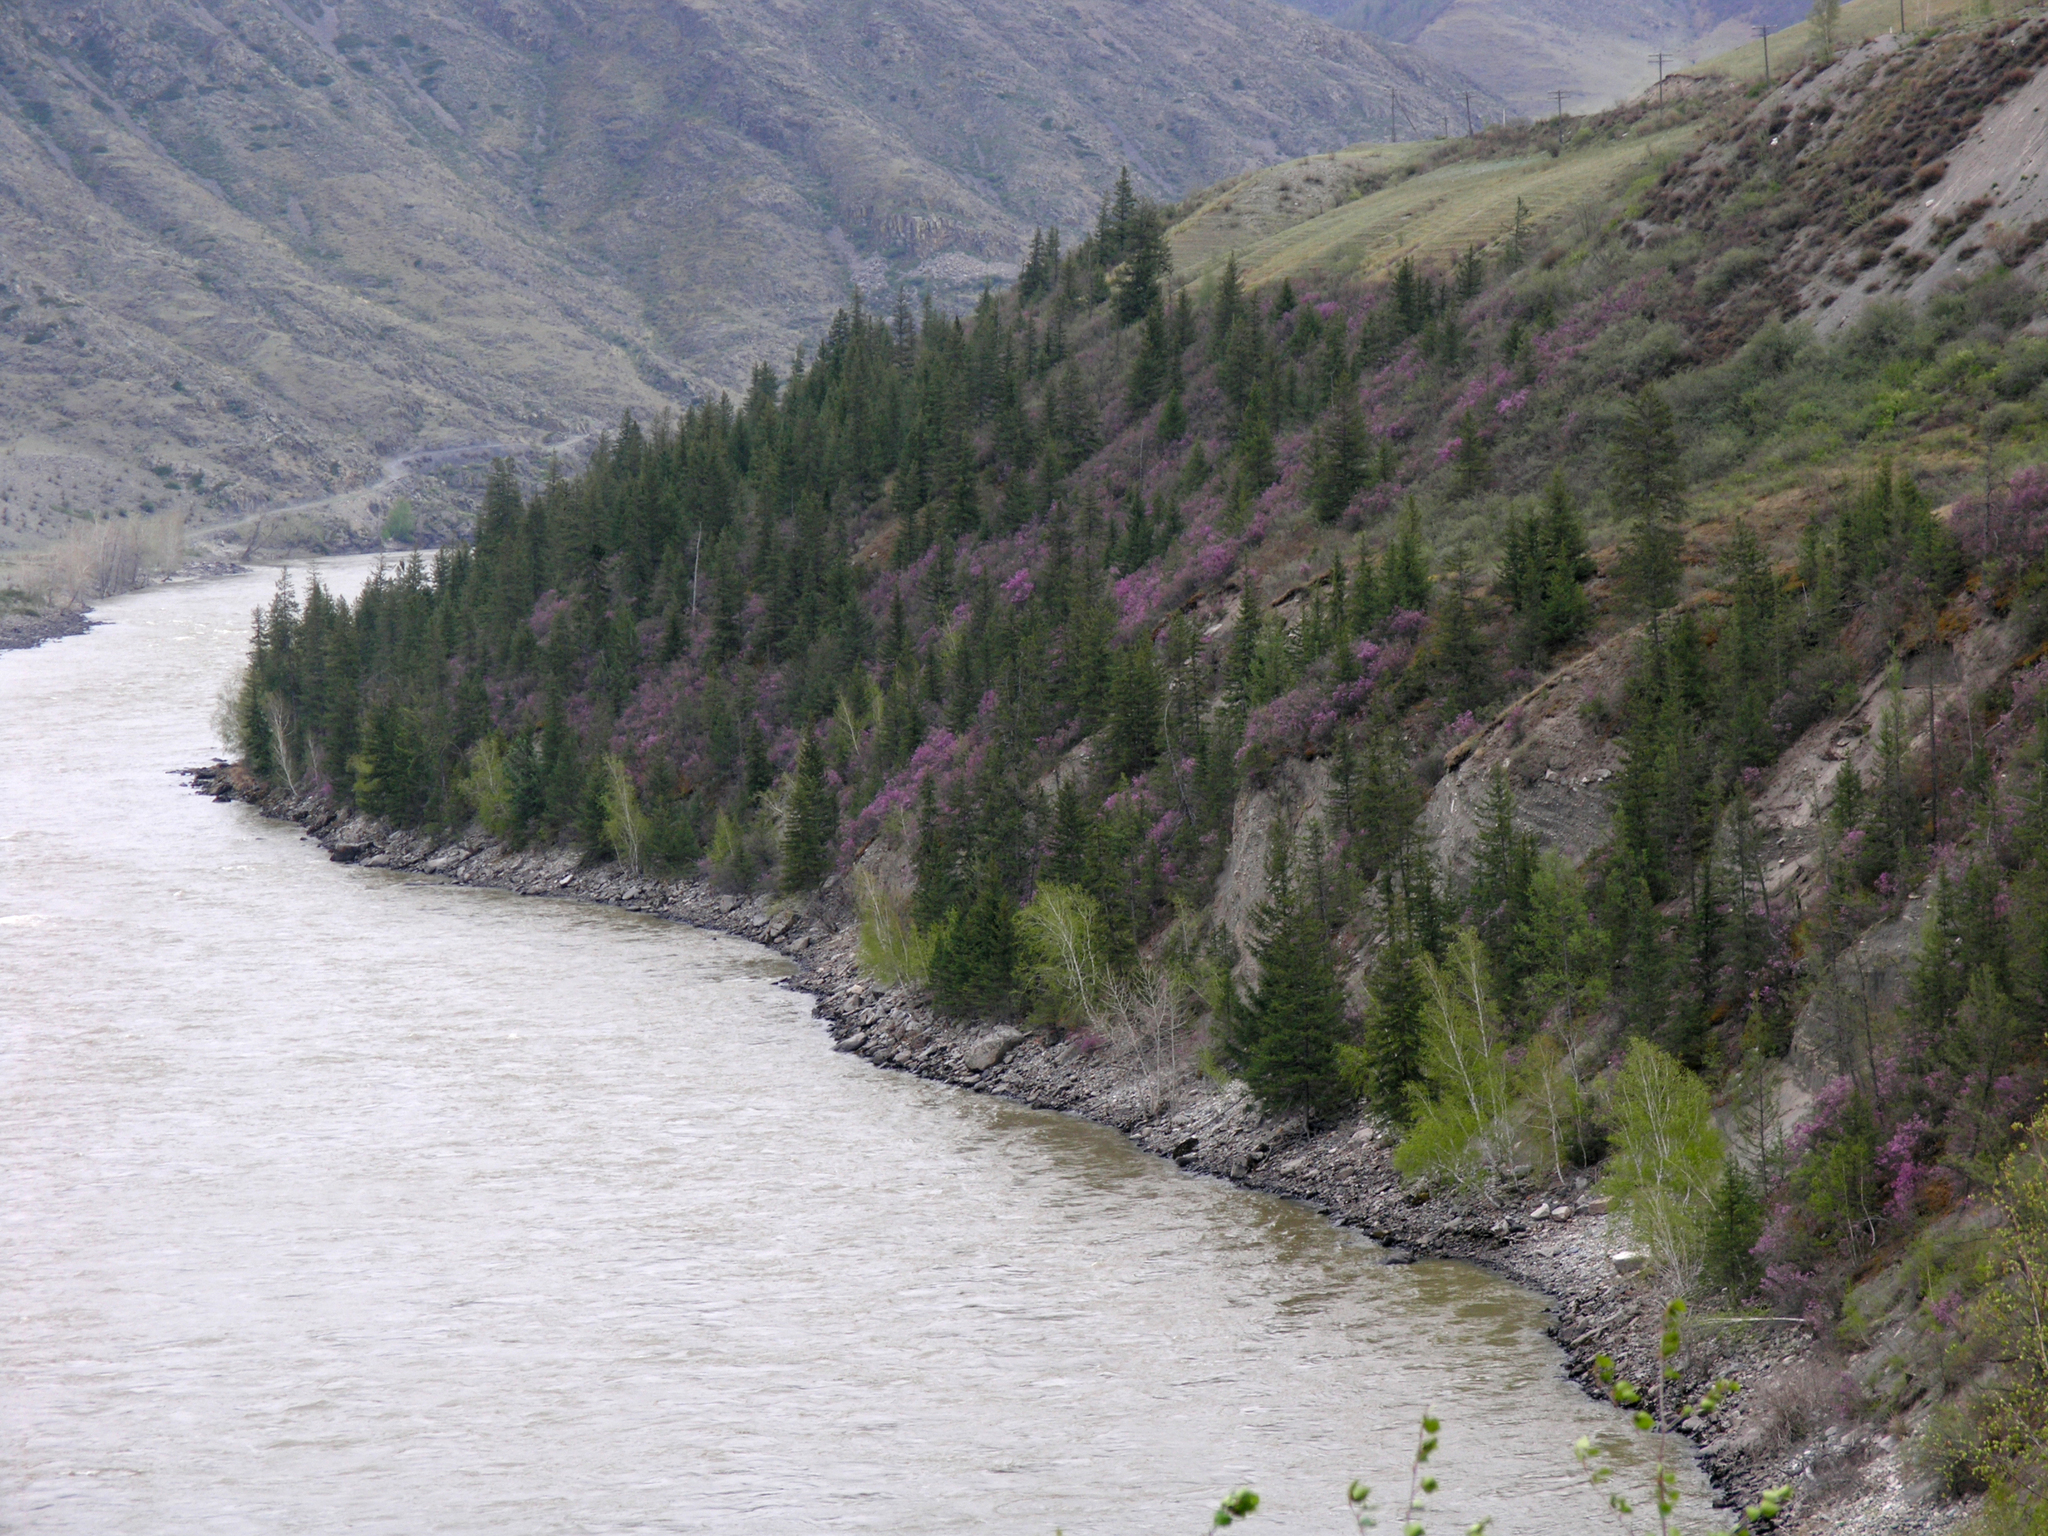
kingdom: Plantae
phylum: Tracheophyta
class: Pinopsida
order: Pinales
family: Pinaceae
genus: Picea
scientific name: Picea obovata
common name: Siberian spruce
